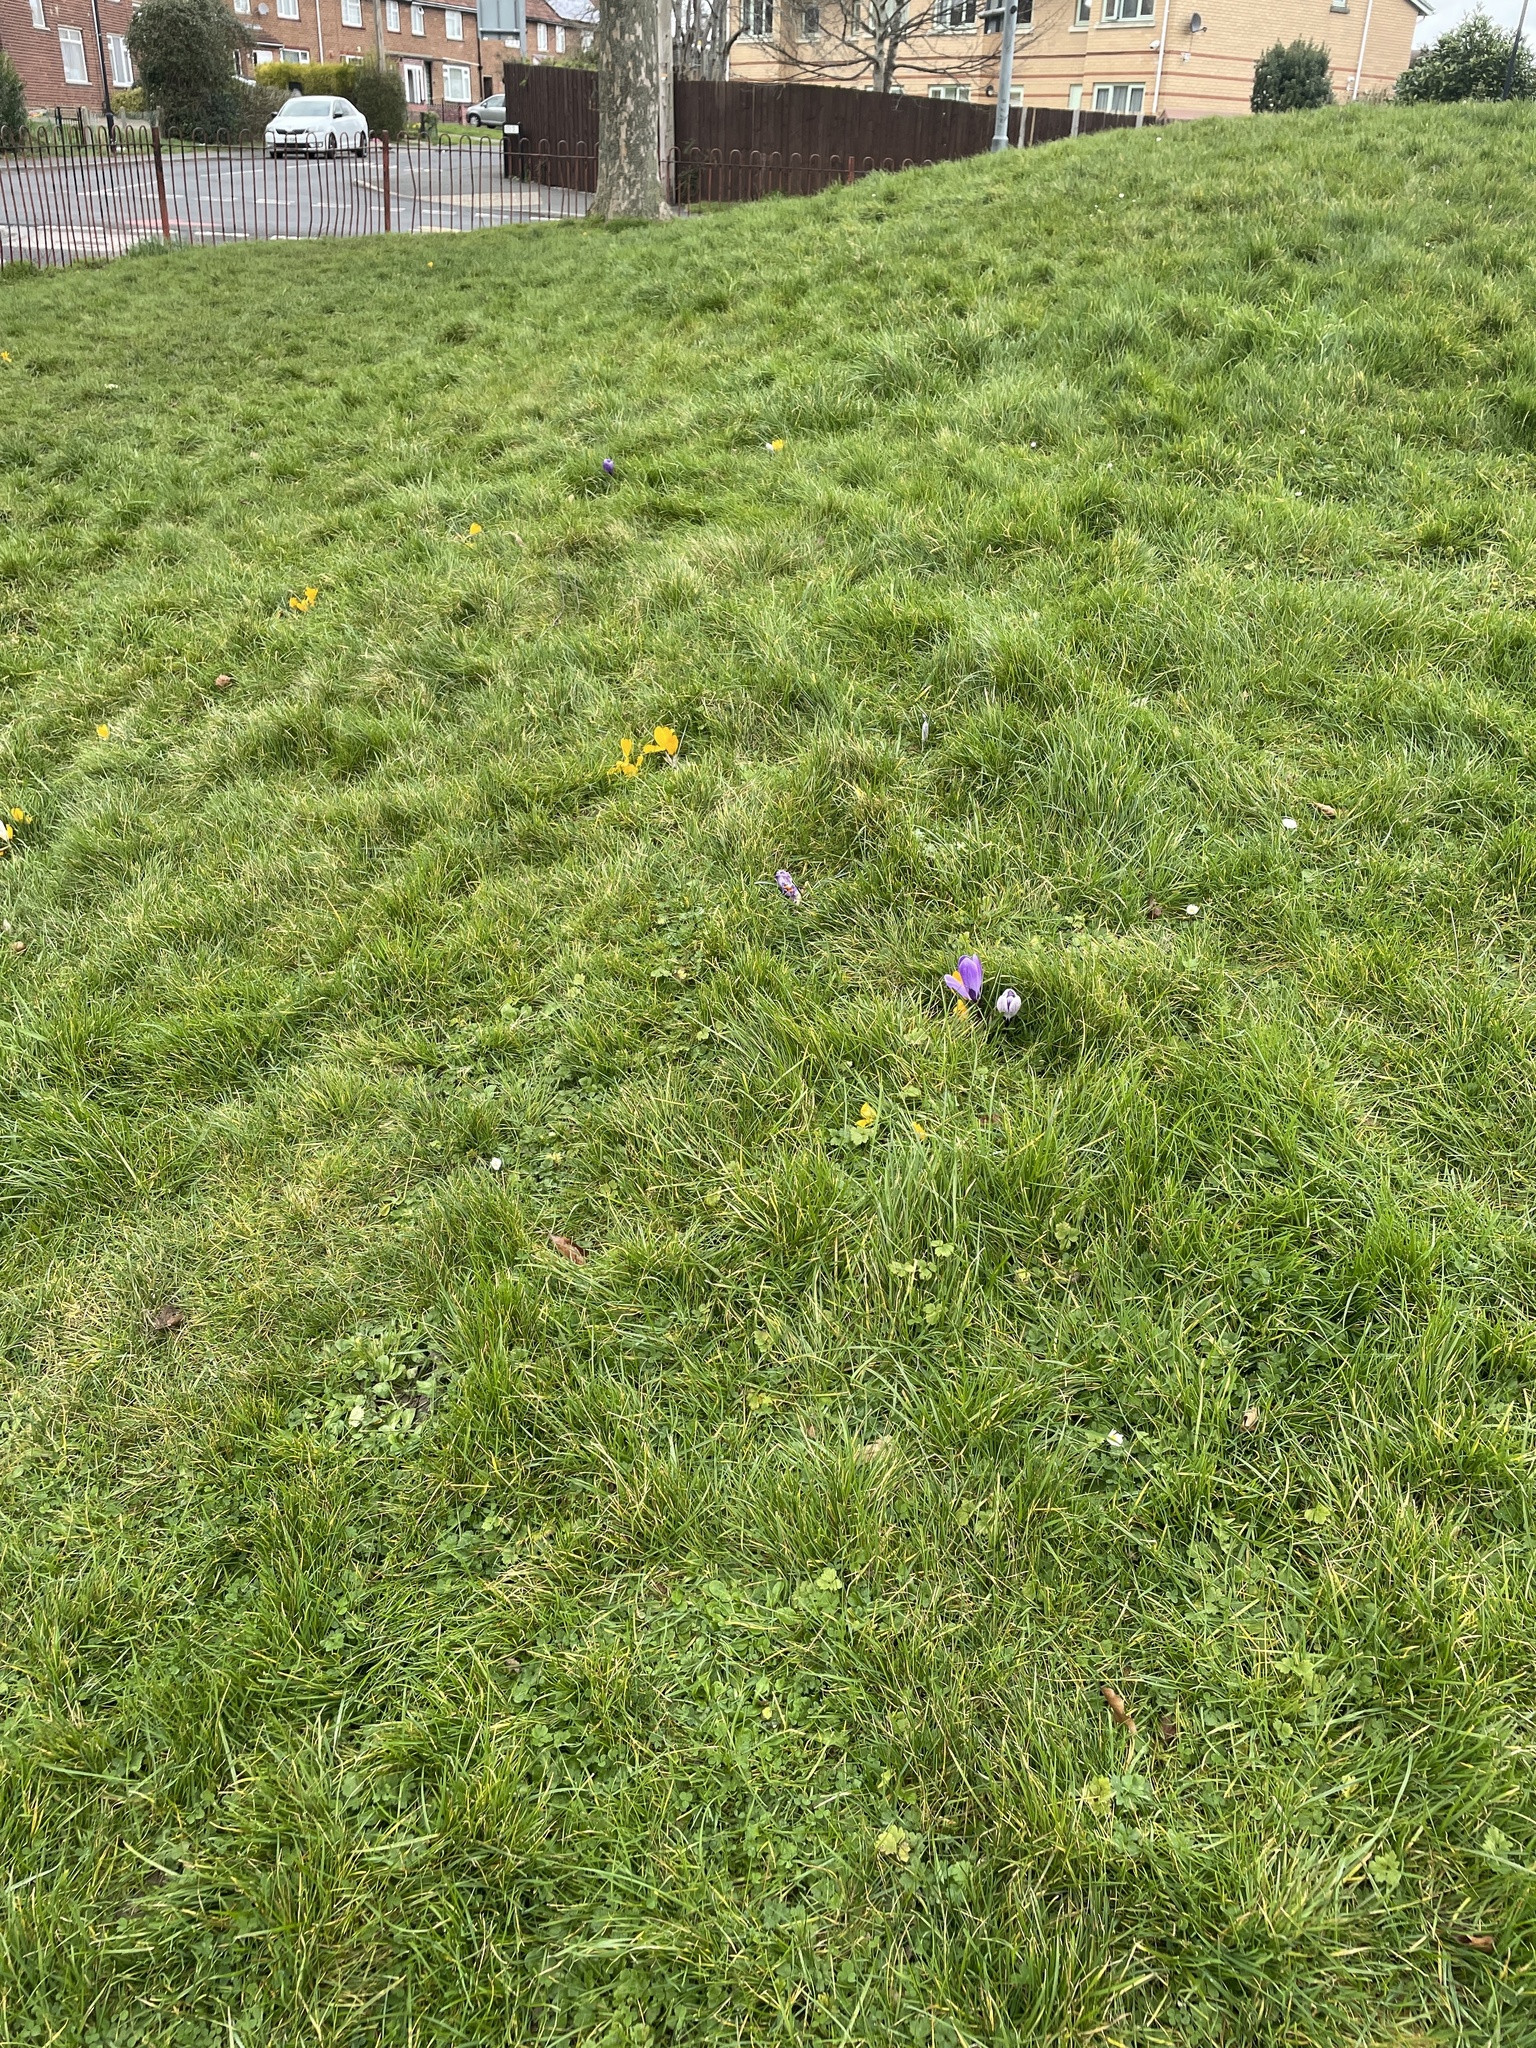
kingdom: Plantae
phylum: Tracheophyta
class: Magnoliopsida
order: Asterales
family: Asteraceae
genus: Bellis
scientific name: Bellis perennis
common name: Lawndaisy
